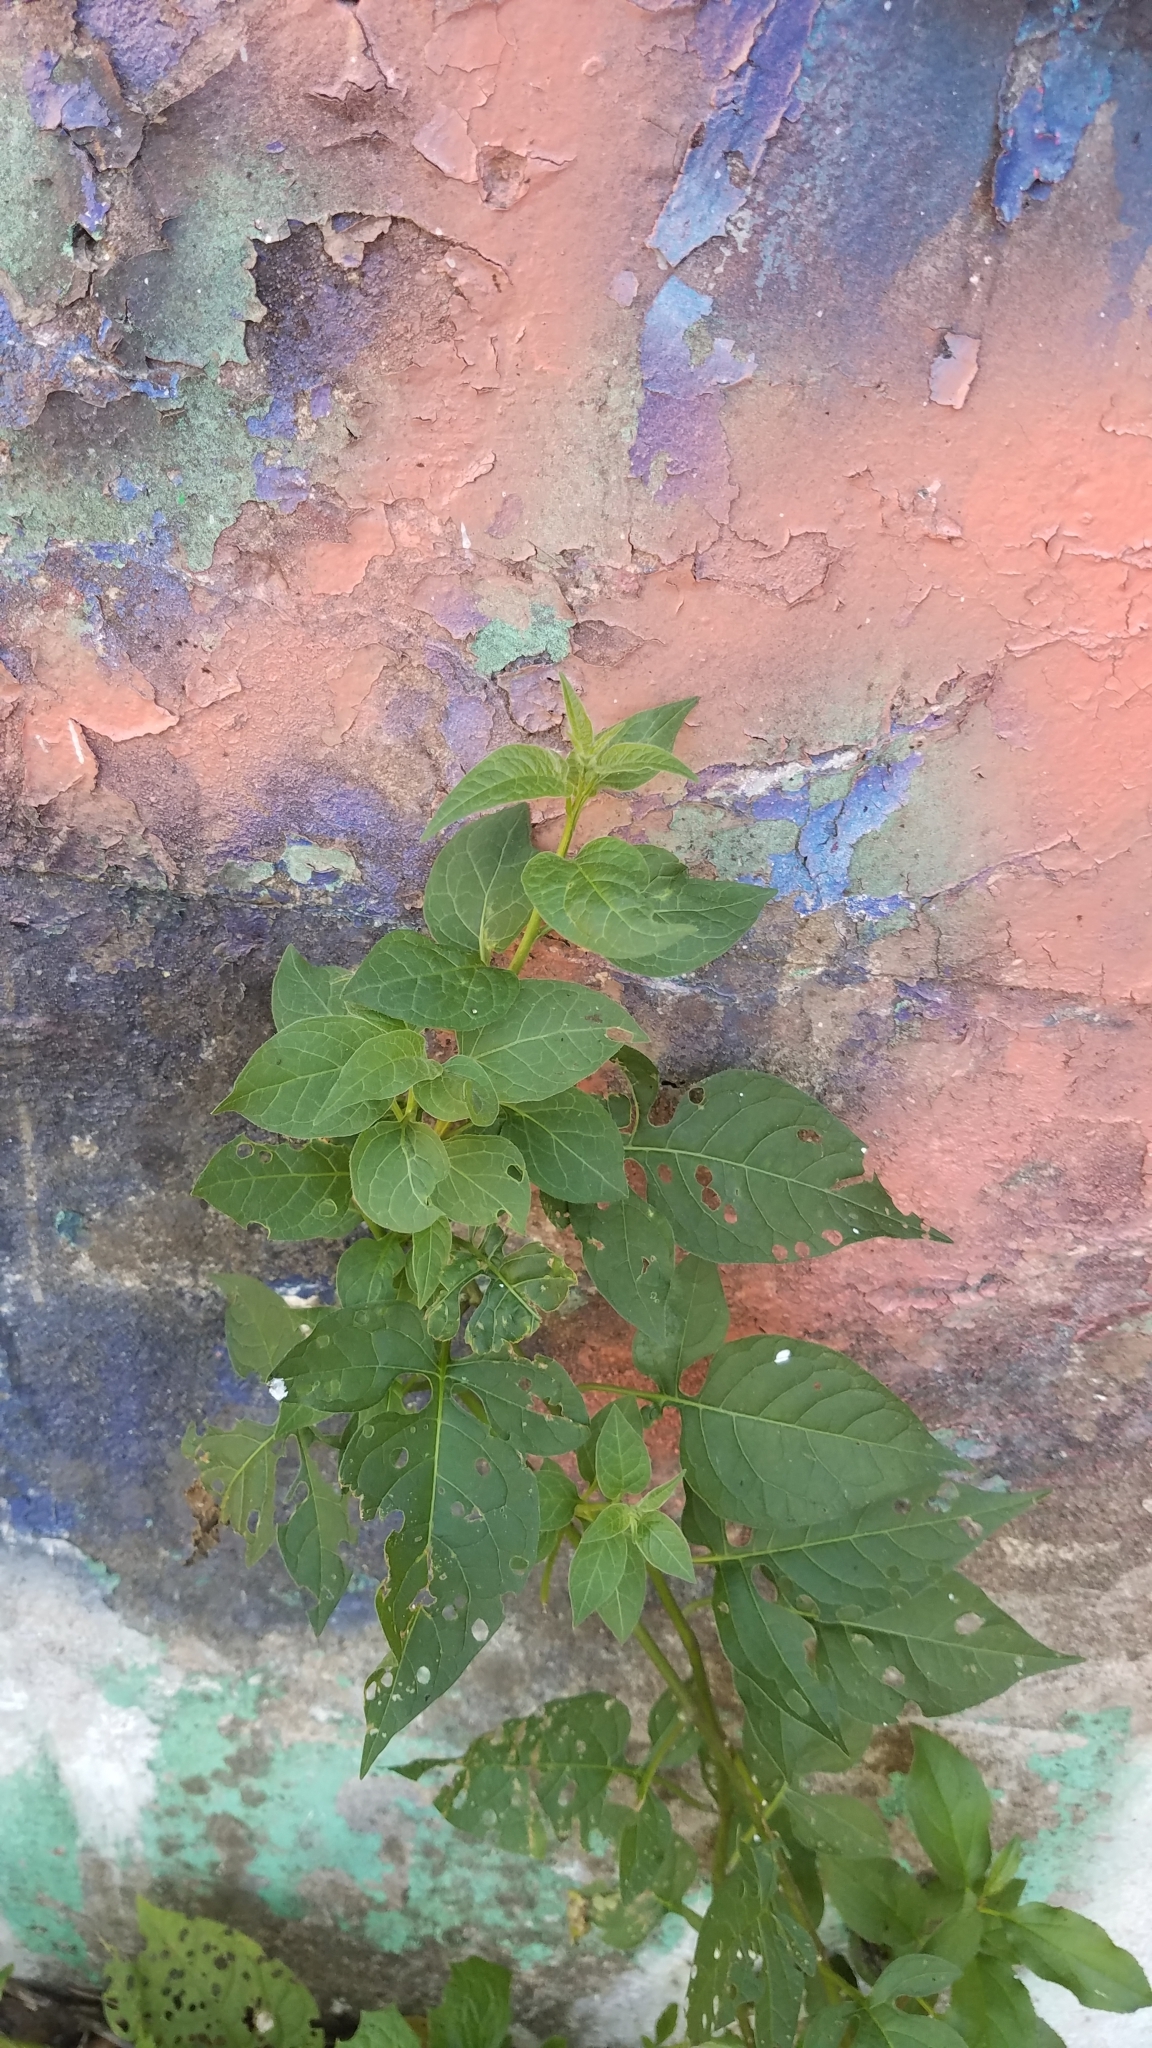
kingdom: Plantae
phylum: Tracheophyta
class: Magnoliopsida
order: Solanales
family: Solanaceae
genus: Solanum
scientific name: Solanum dulcamara
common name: Climbing nightshade
